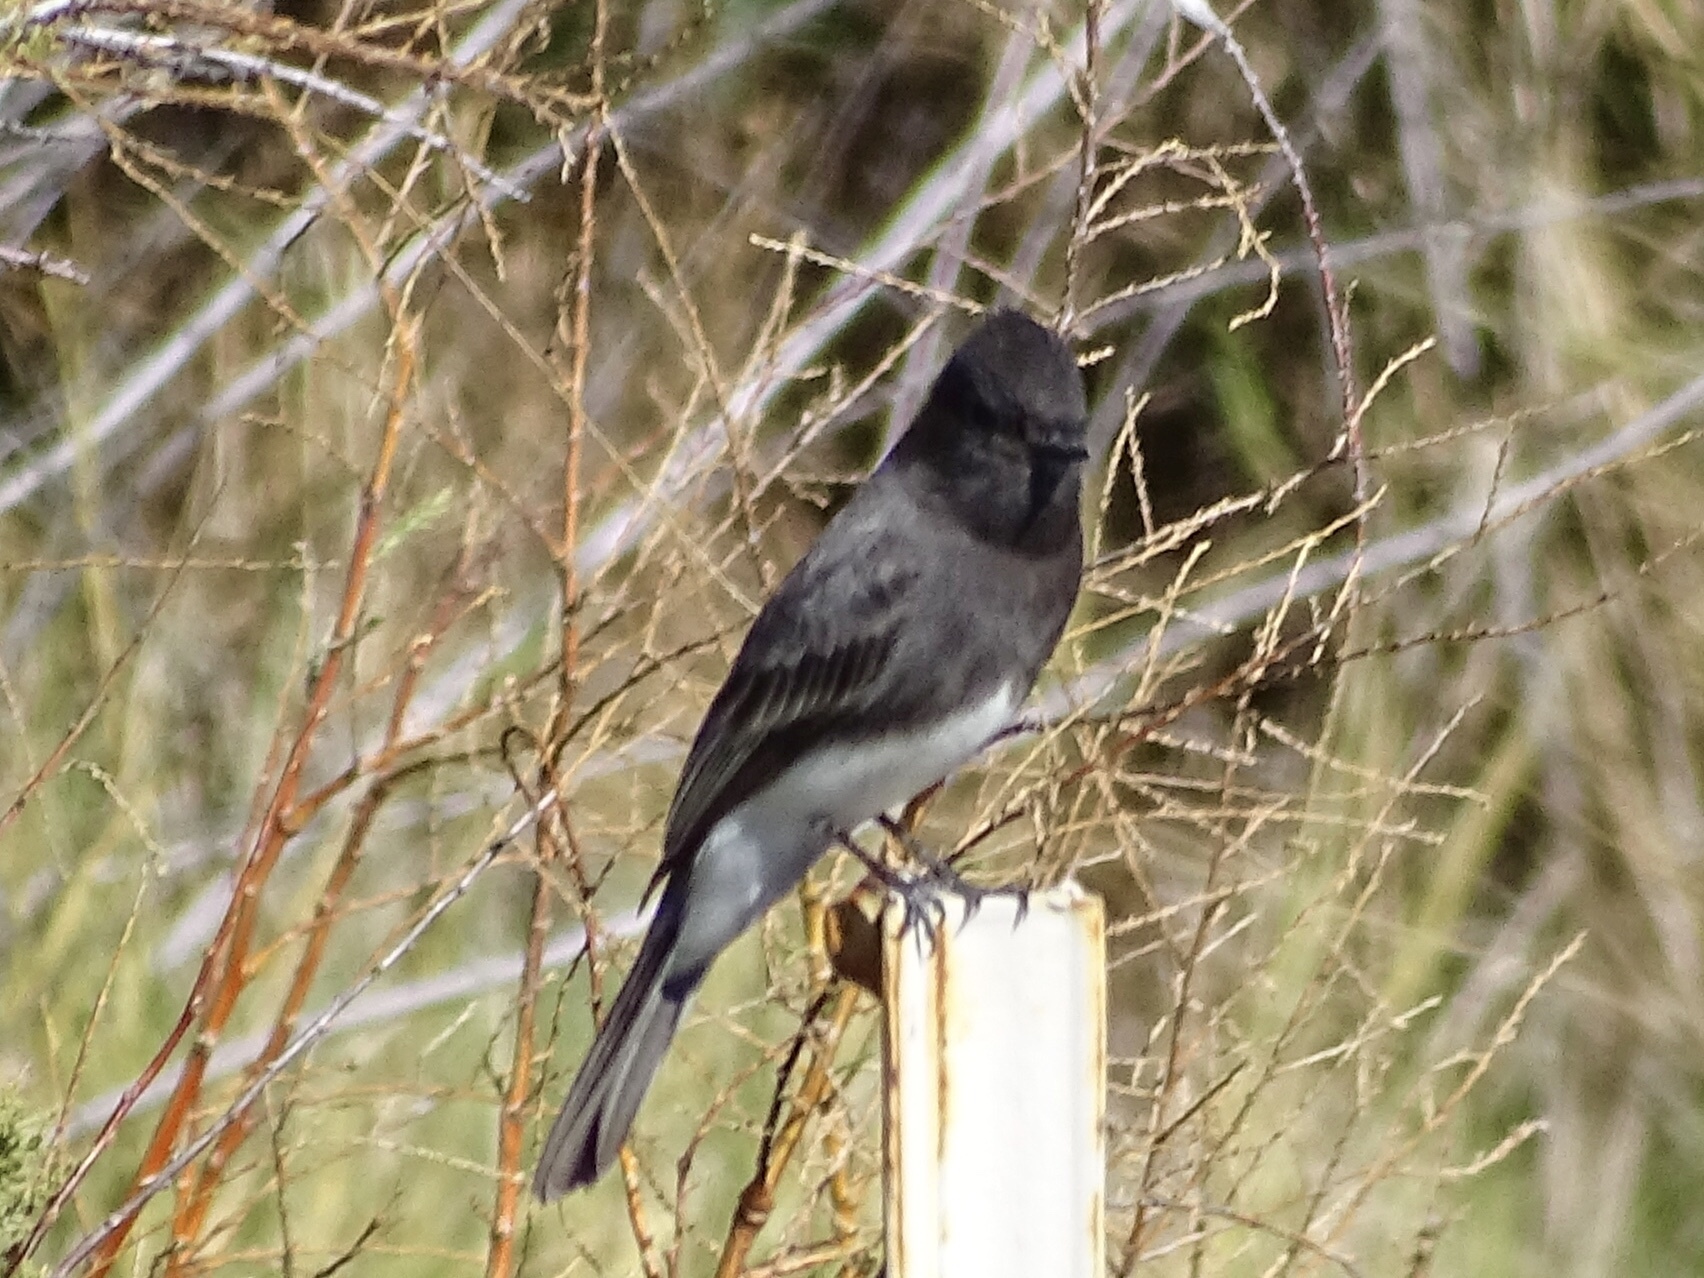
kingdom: Animalia
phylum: Chordata
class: Aves
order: Passeriformes
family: Tyrannidae
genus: Sayornis
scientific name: Sayornis nigricans
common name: Black phoebe
